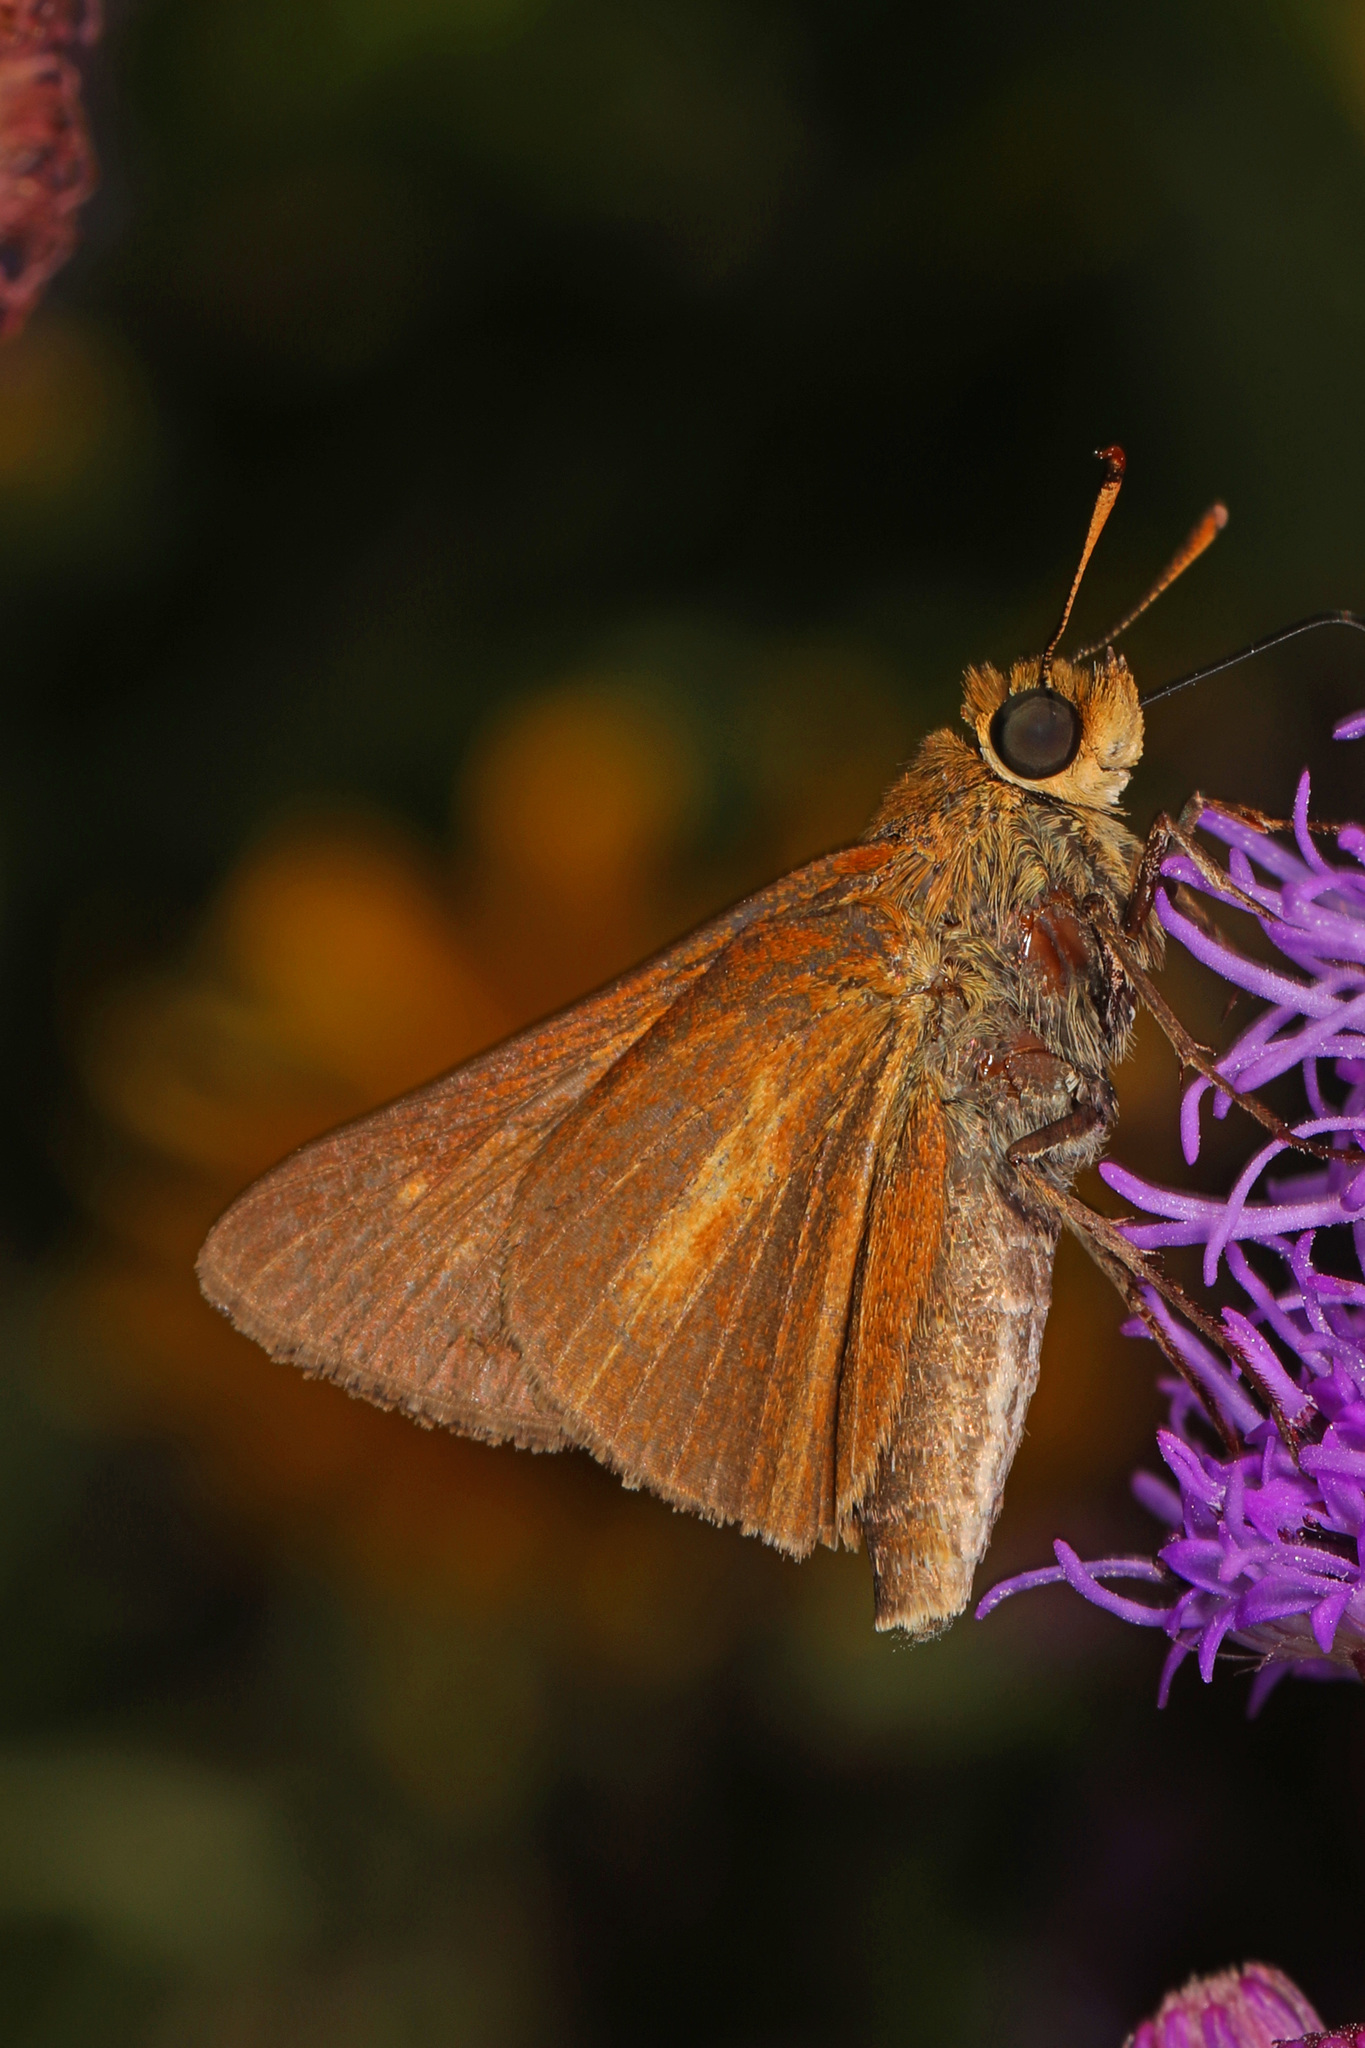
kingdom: Animalia
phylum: Arthropoda
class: Insecta
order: Lepidoptera
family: Hesperiidae
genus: Euphyes
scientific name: Euphyes dion
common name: Dion skipper
